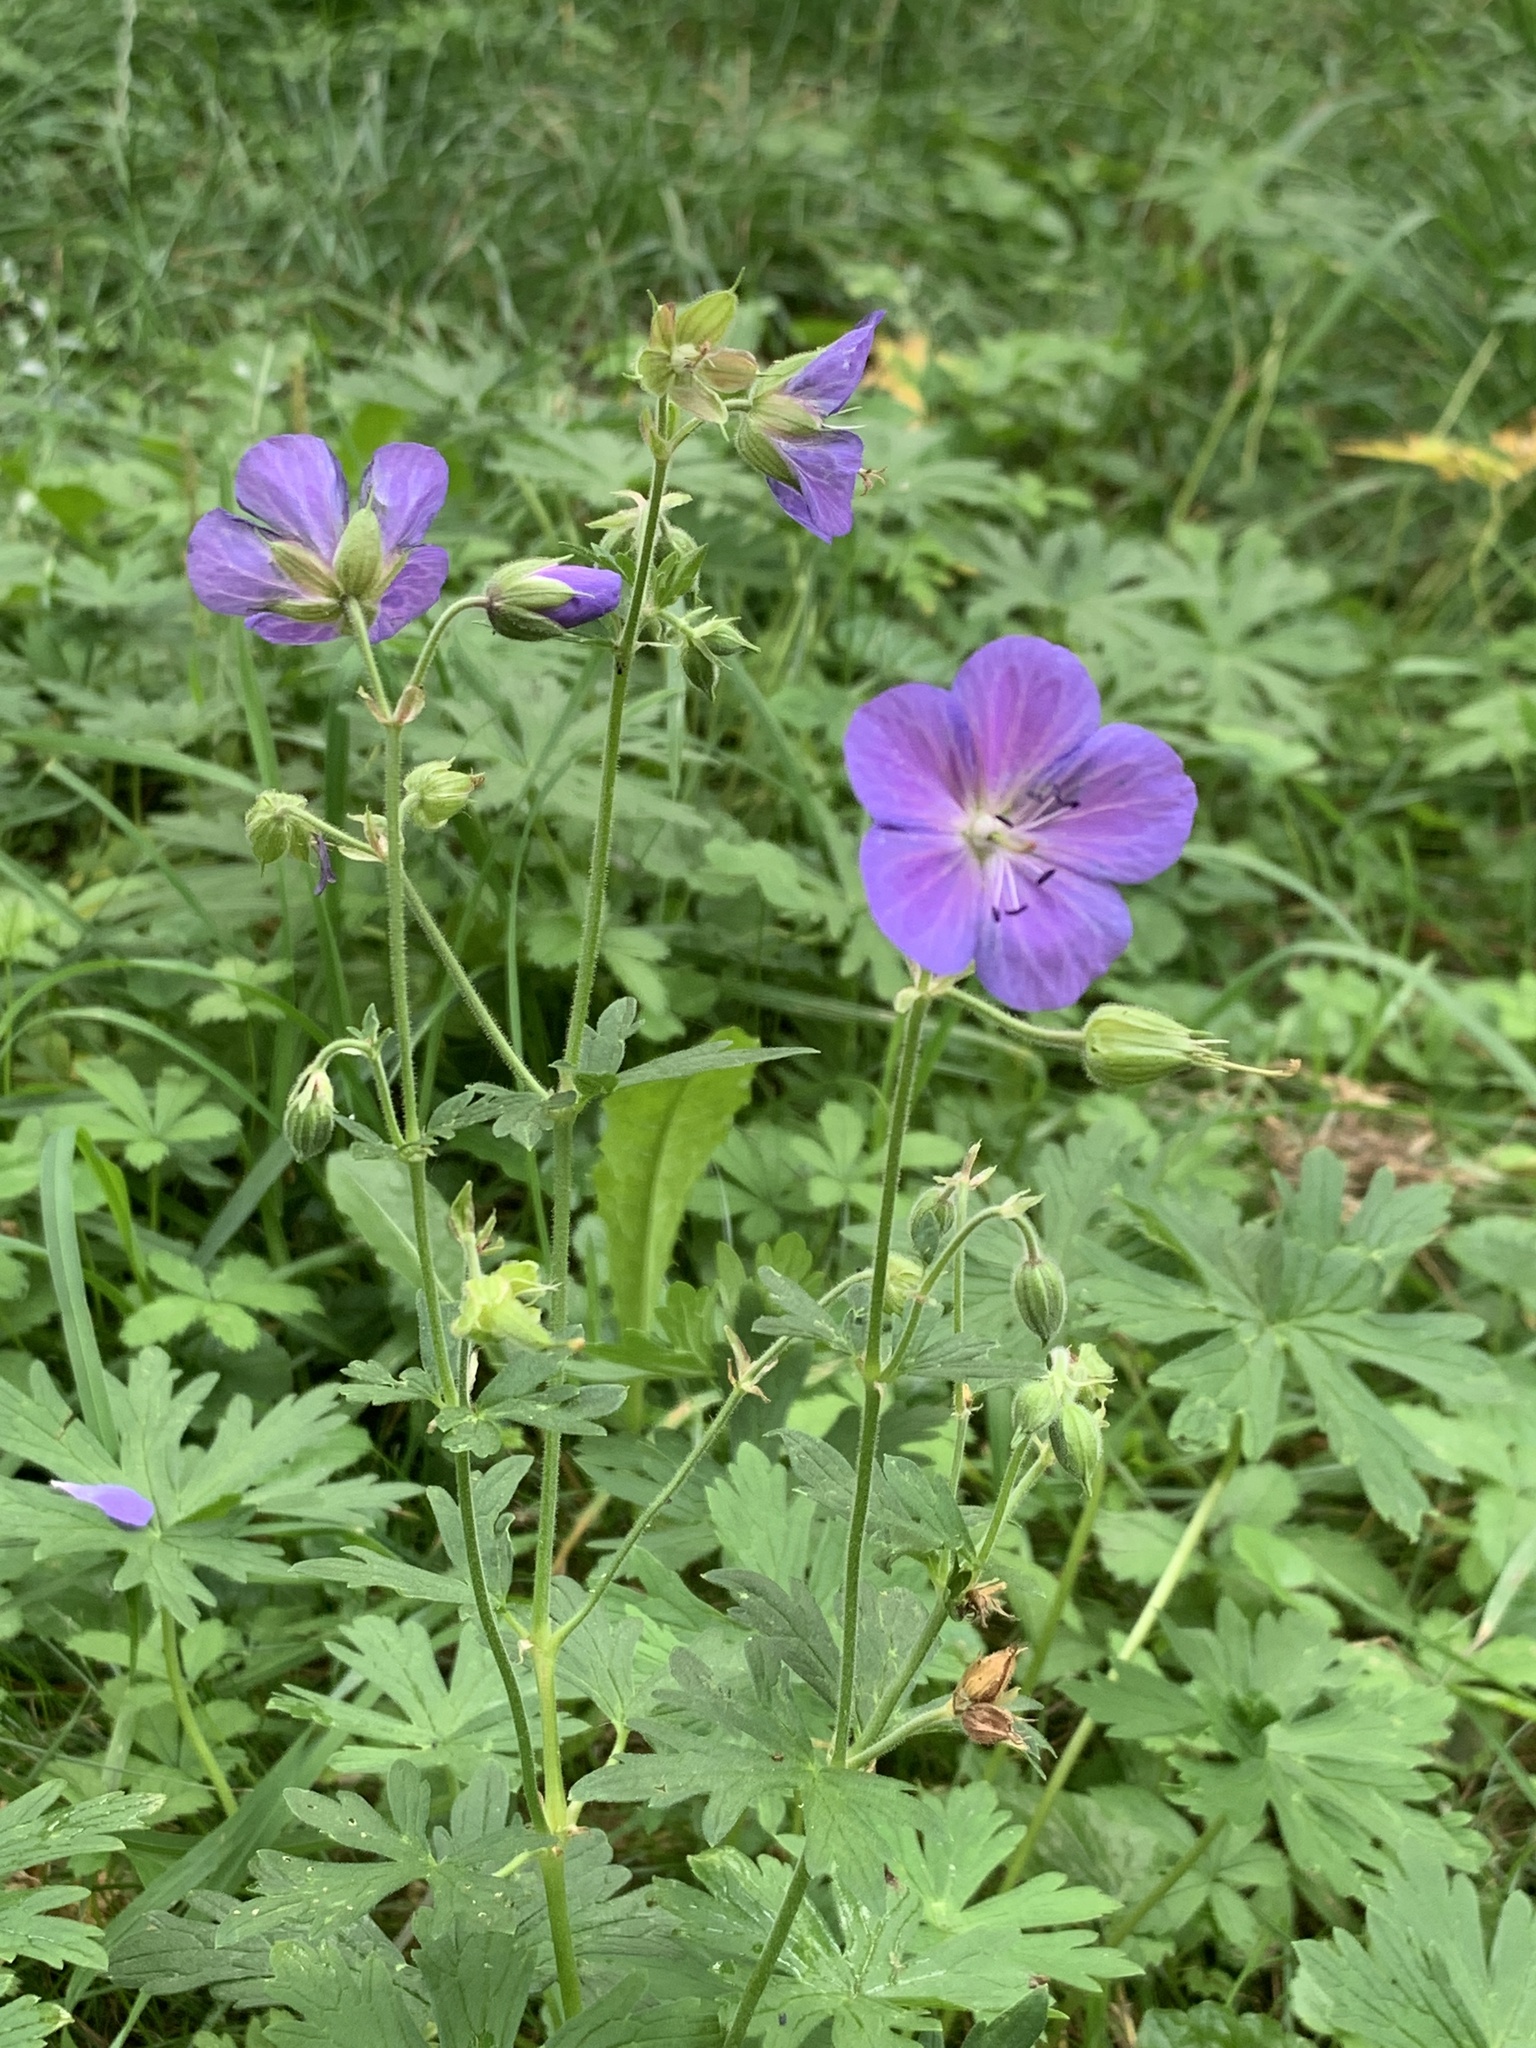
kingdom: Plantae
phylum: Tracheophyta
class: Magnoliopsida
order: Geraniales
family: Geraniaceae
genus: Geranium
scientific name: Geranium pratense
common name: Meadow crane's-bill
